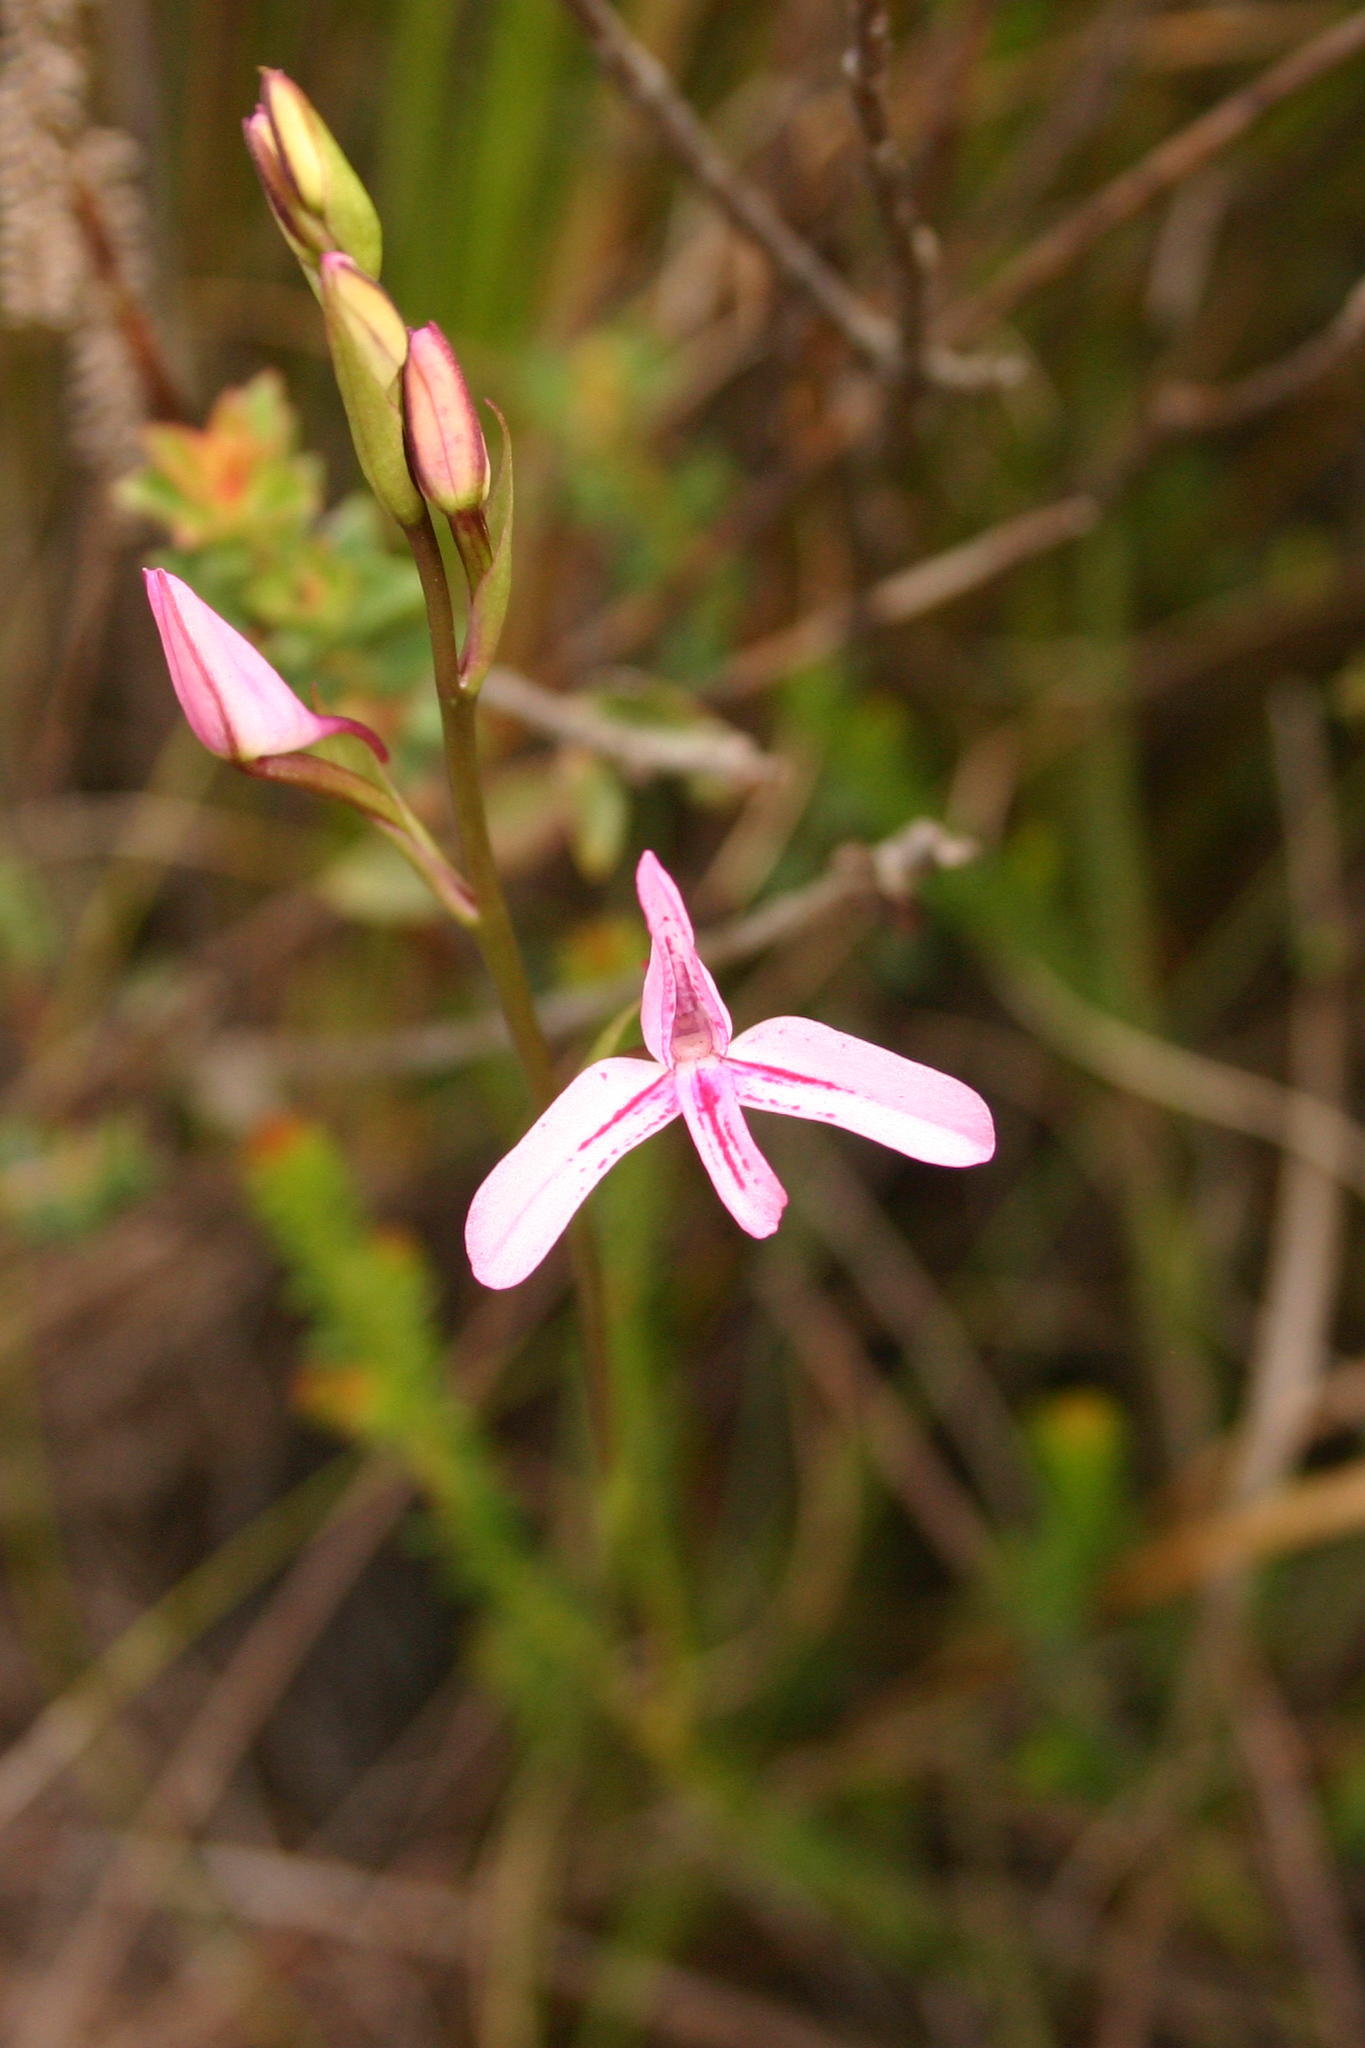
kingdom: Plantae
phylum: Tracheophyta
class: Liliopsida
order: Asparagales
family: Orchidaceae
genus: Disa
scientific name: Disa gladioliflora
